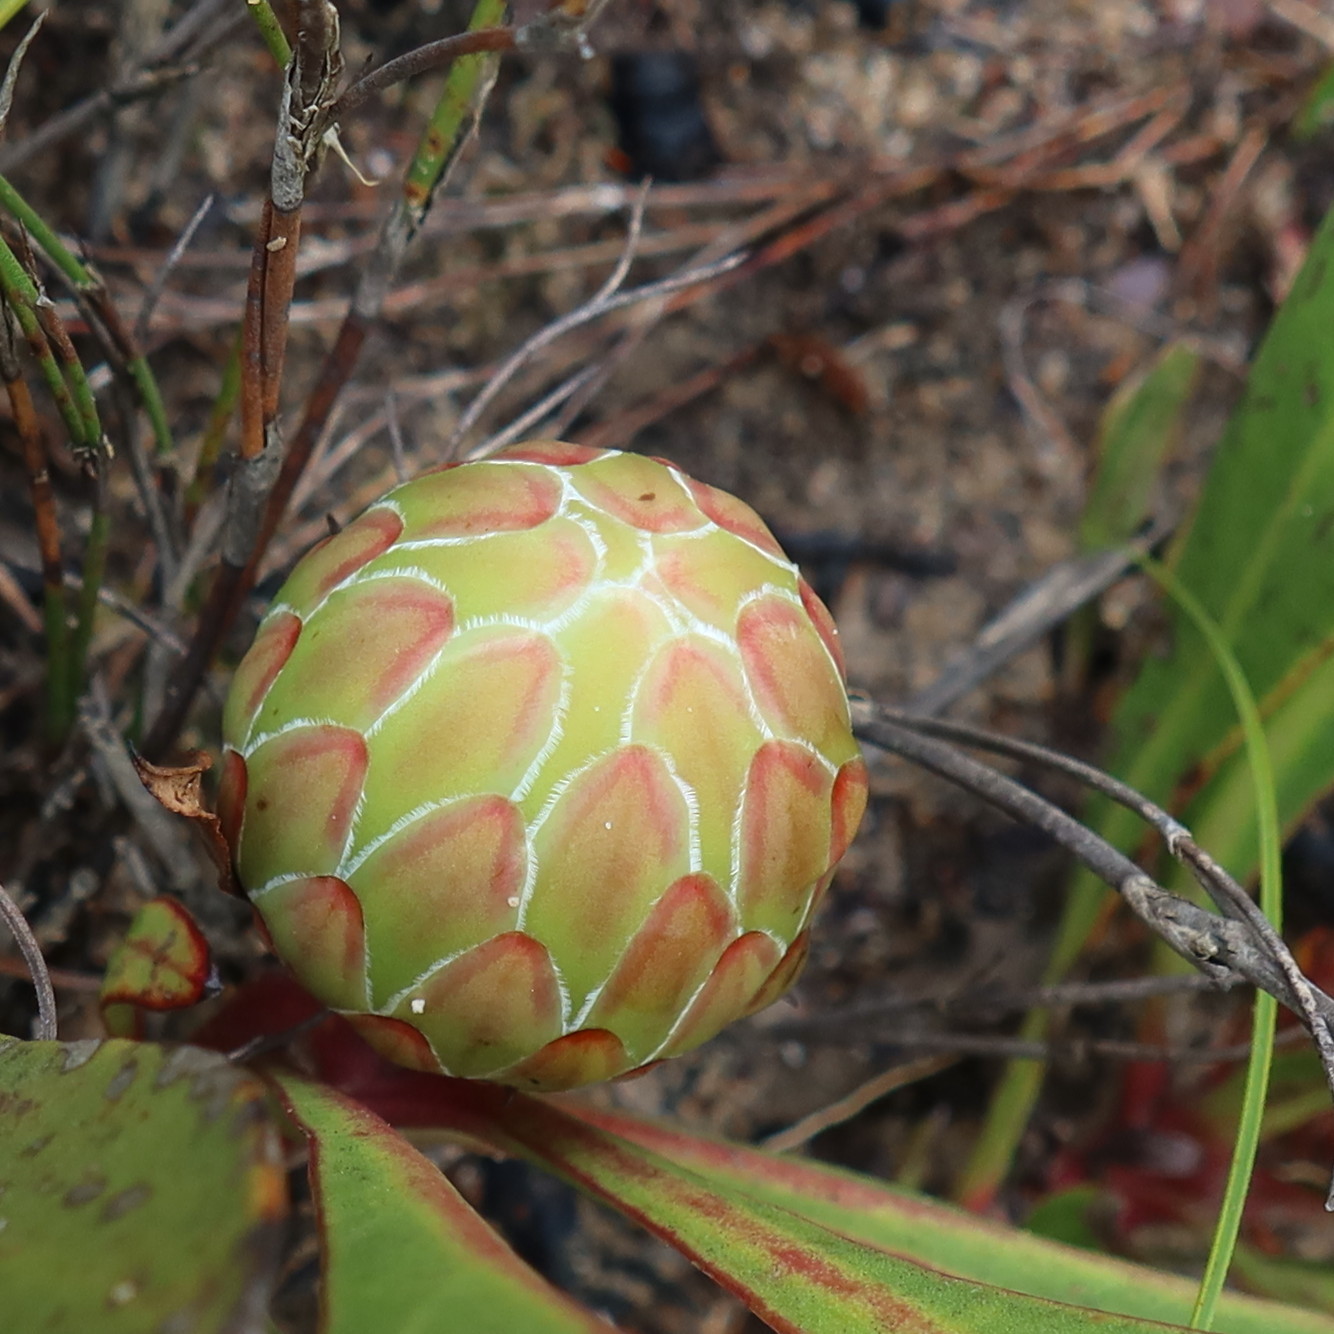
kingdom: Plantae
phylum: Tracheophyta
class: Magnoliopsida
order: Proteales
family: Proteaceae
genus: Protea
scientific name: Protea acaulos
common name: Common ground sugarbush
